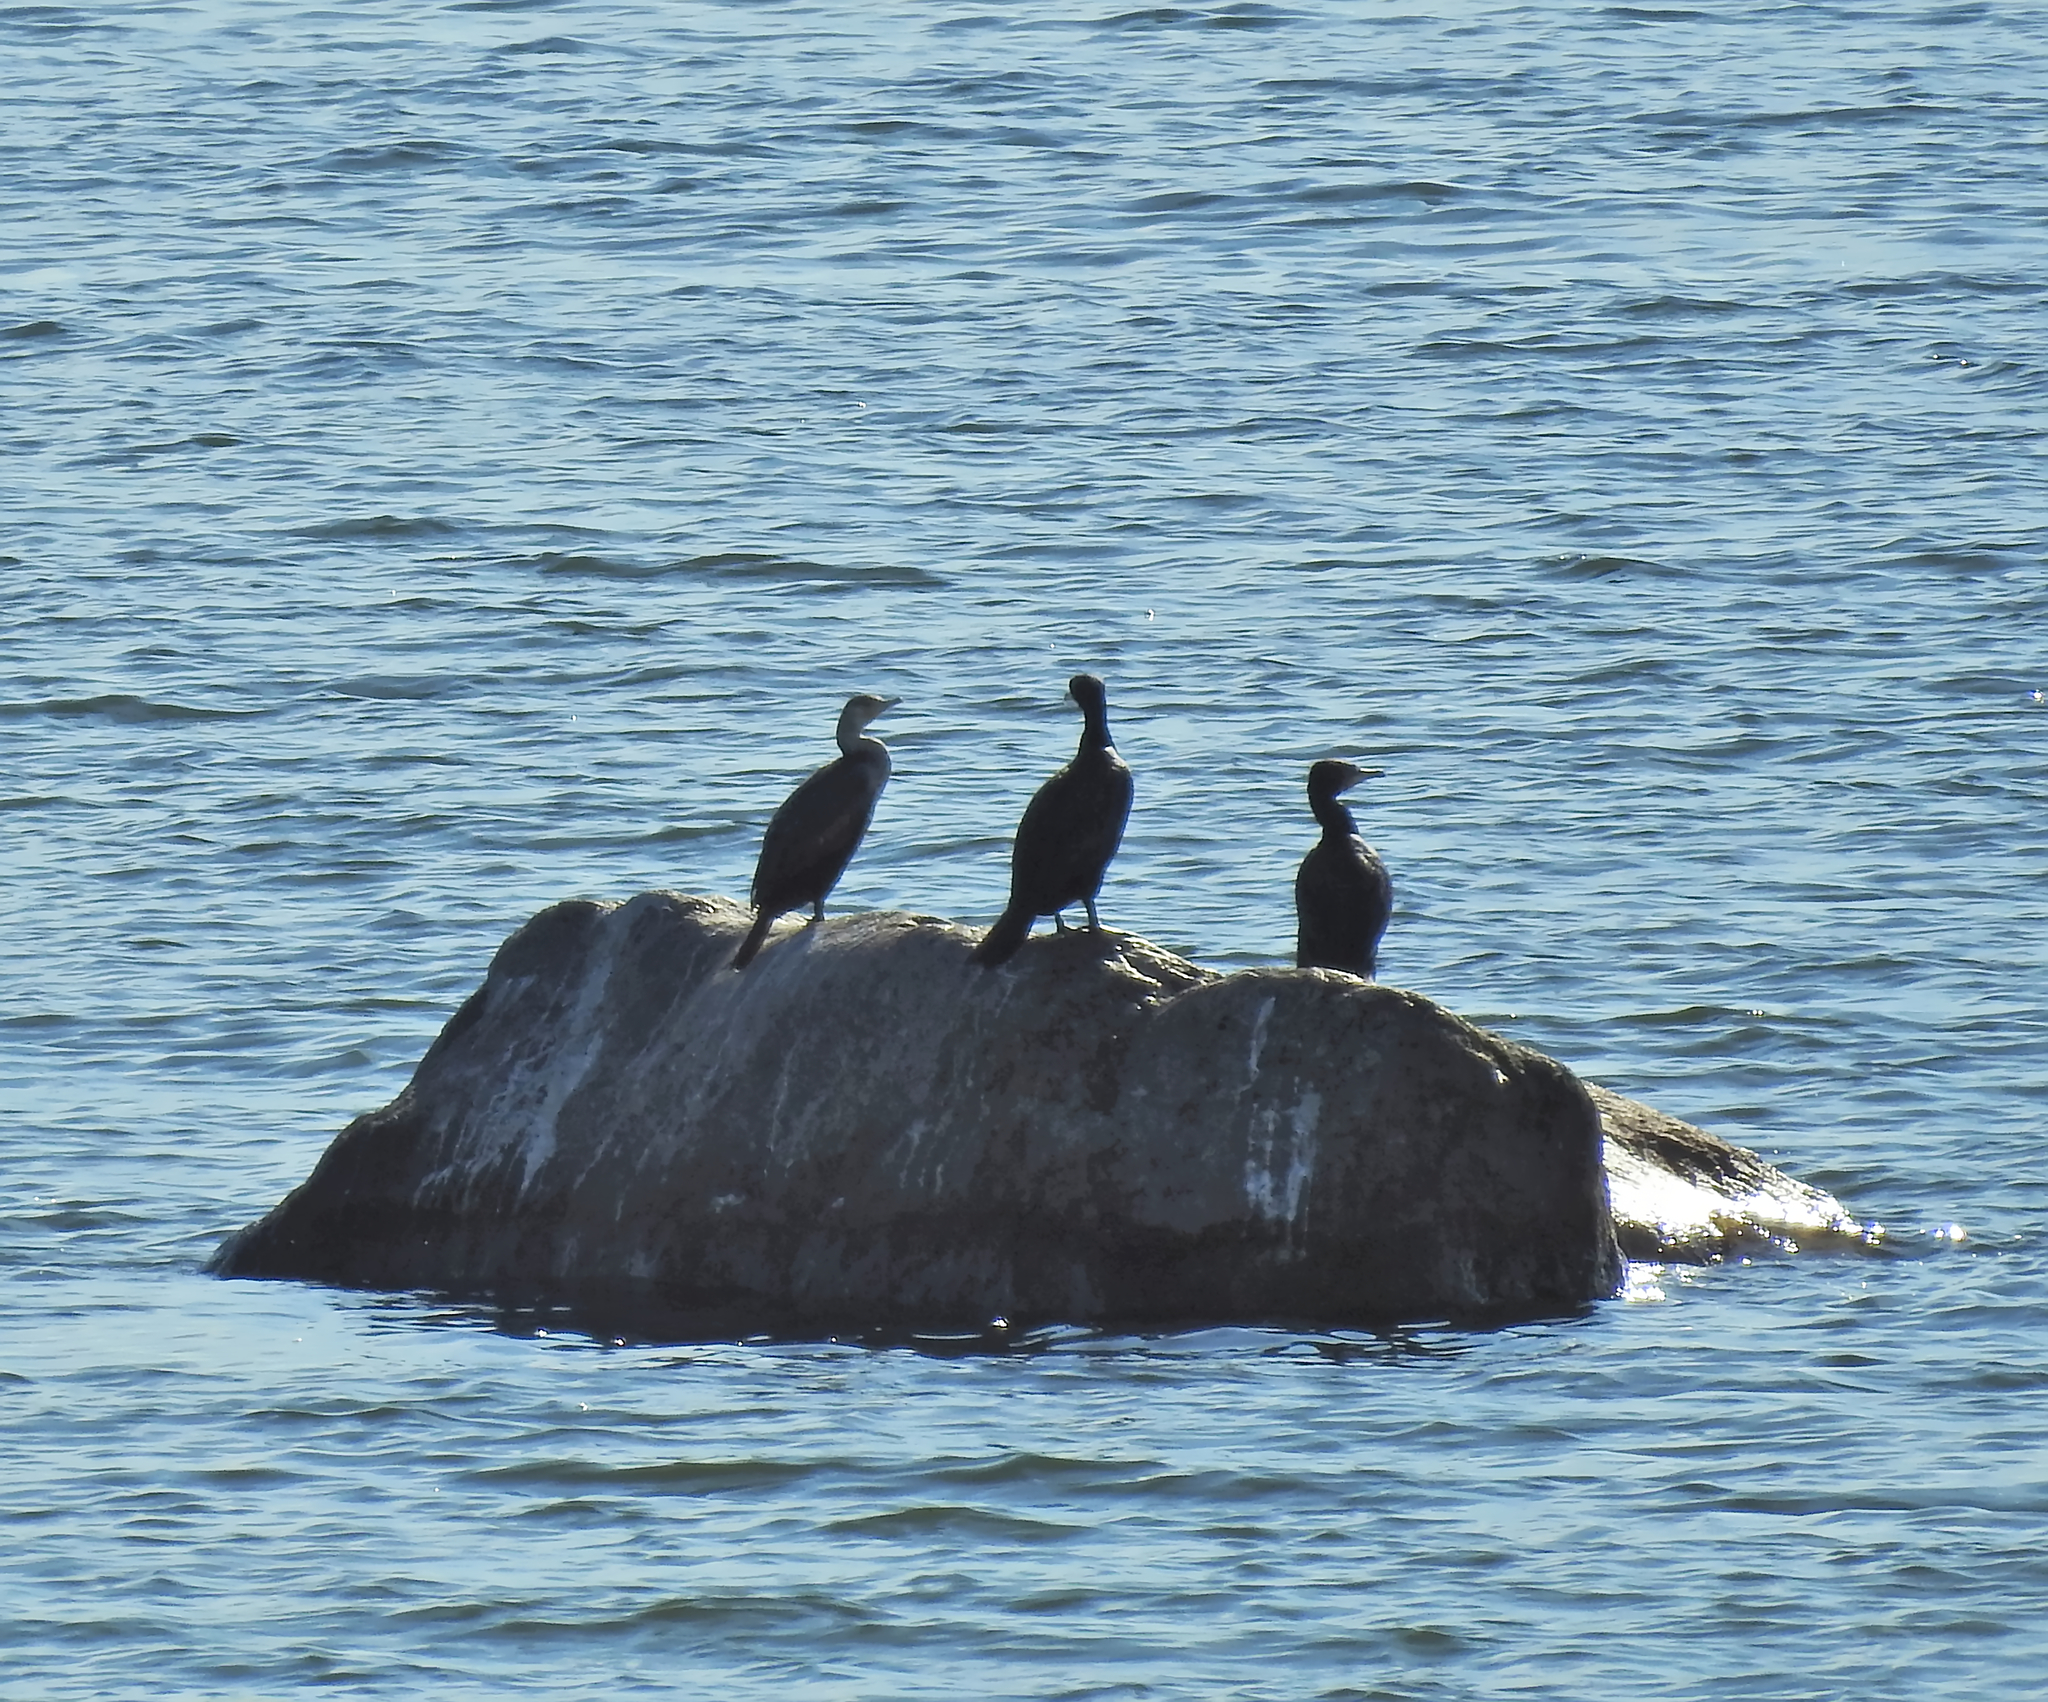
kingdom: Animalia
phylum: Chordata
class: Aves
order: Suliformes
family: Phalacrocoracidae
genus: Phalacrocorax
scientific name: Phalacrocorax carbo
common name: Great cormorant
